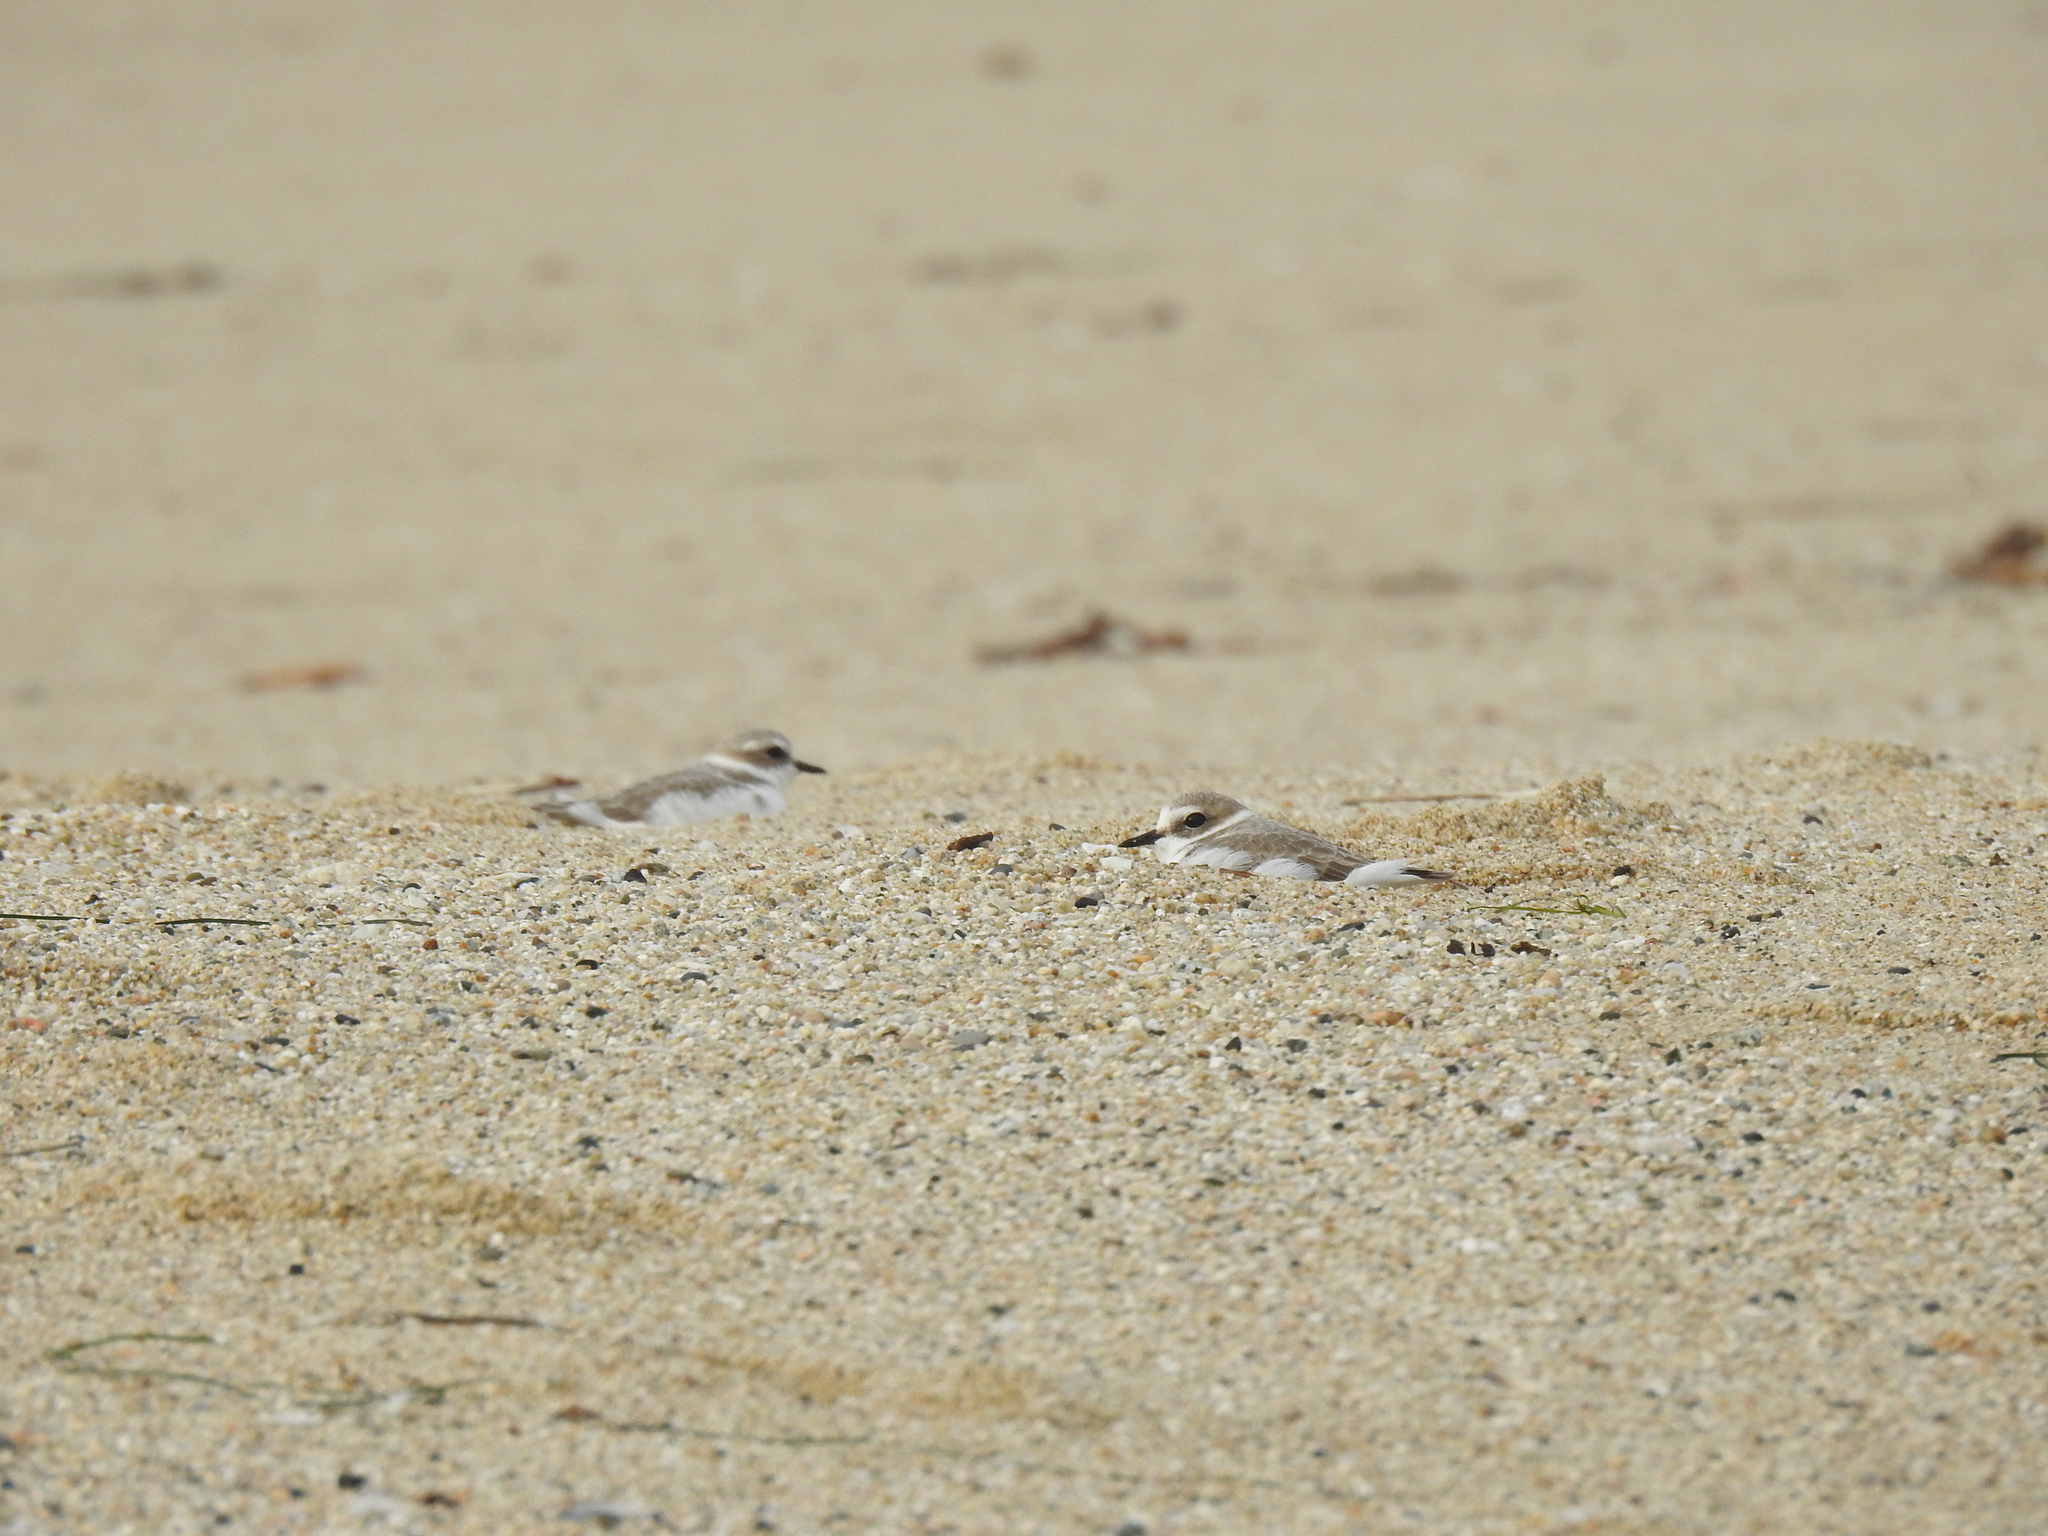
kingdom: Animalia
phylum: Chordata
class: Aves
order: Charadriiformes
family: Charadriidae
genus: Anarhynchus
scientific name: Anarhynchus
